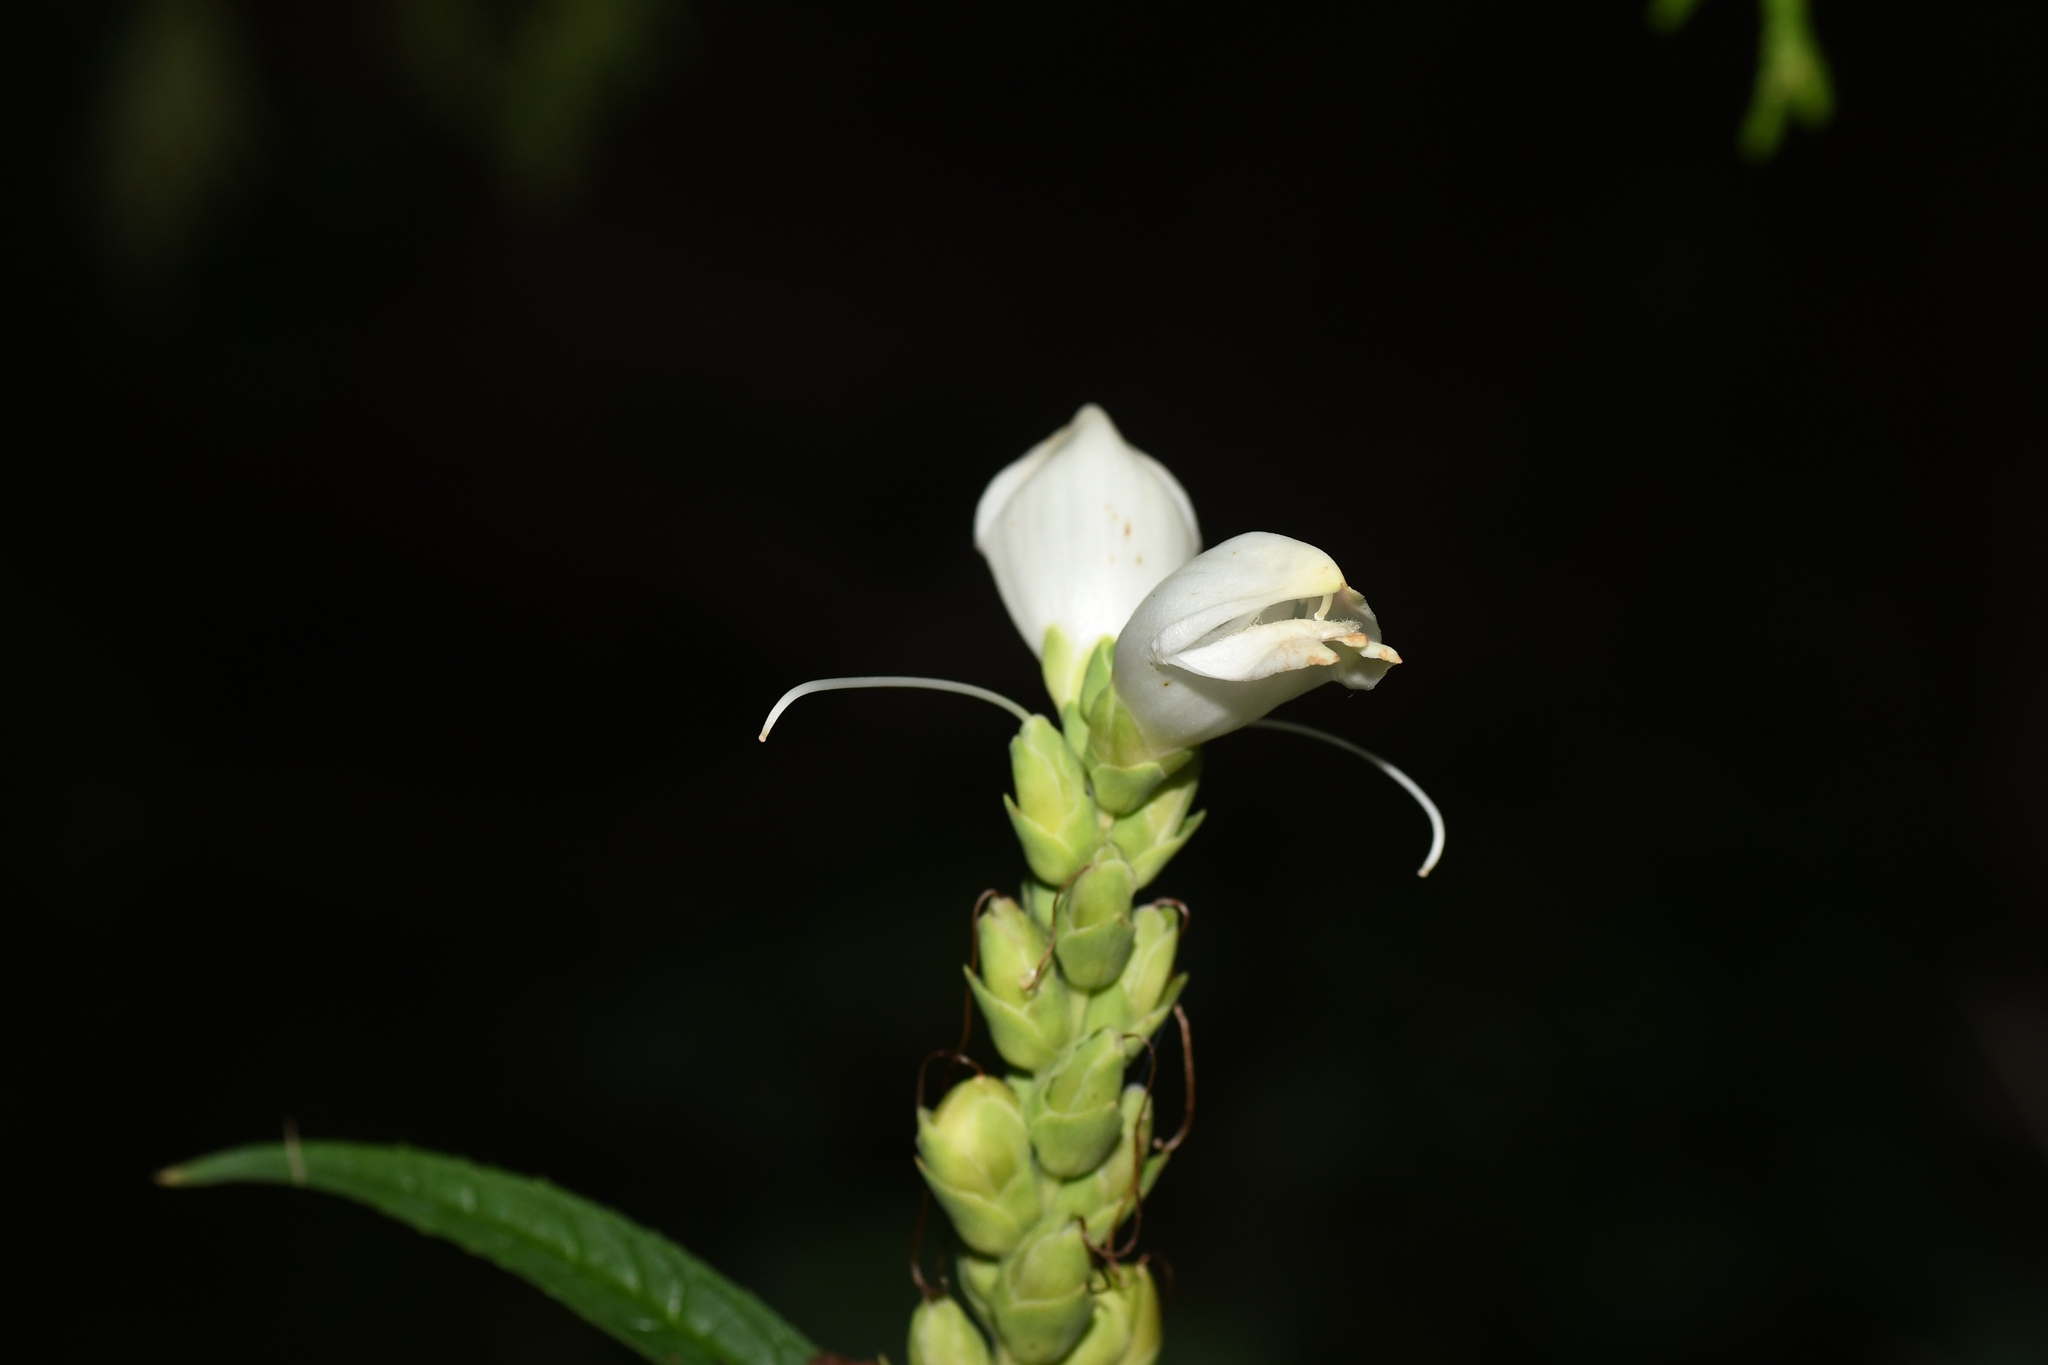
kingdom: Plantae
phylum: Tracheophyta
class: Magnoliopsida
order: Lamiales
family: Plantaginaceae
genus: Chelone
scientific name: Chelone glabra
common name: Snakehead
